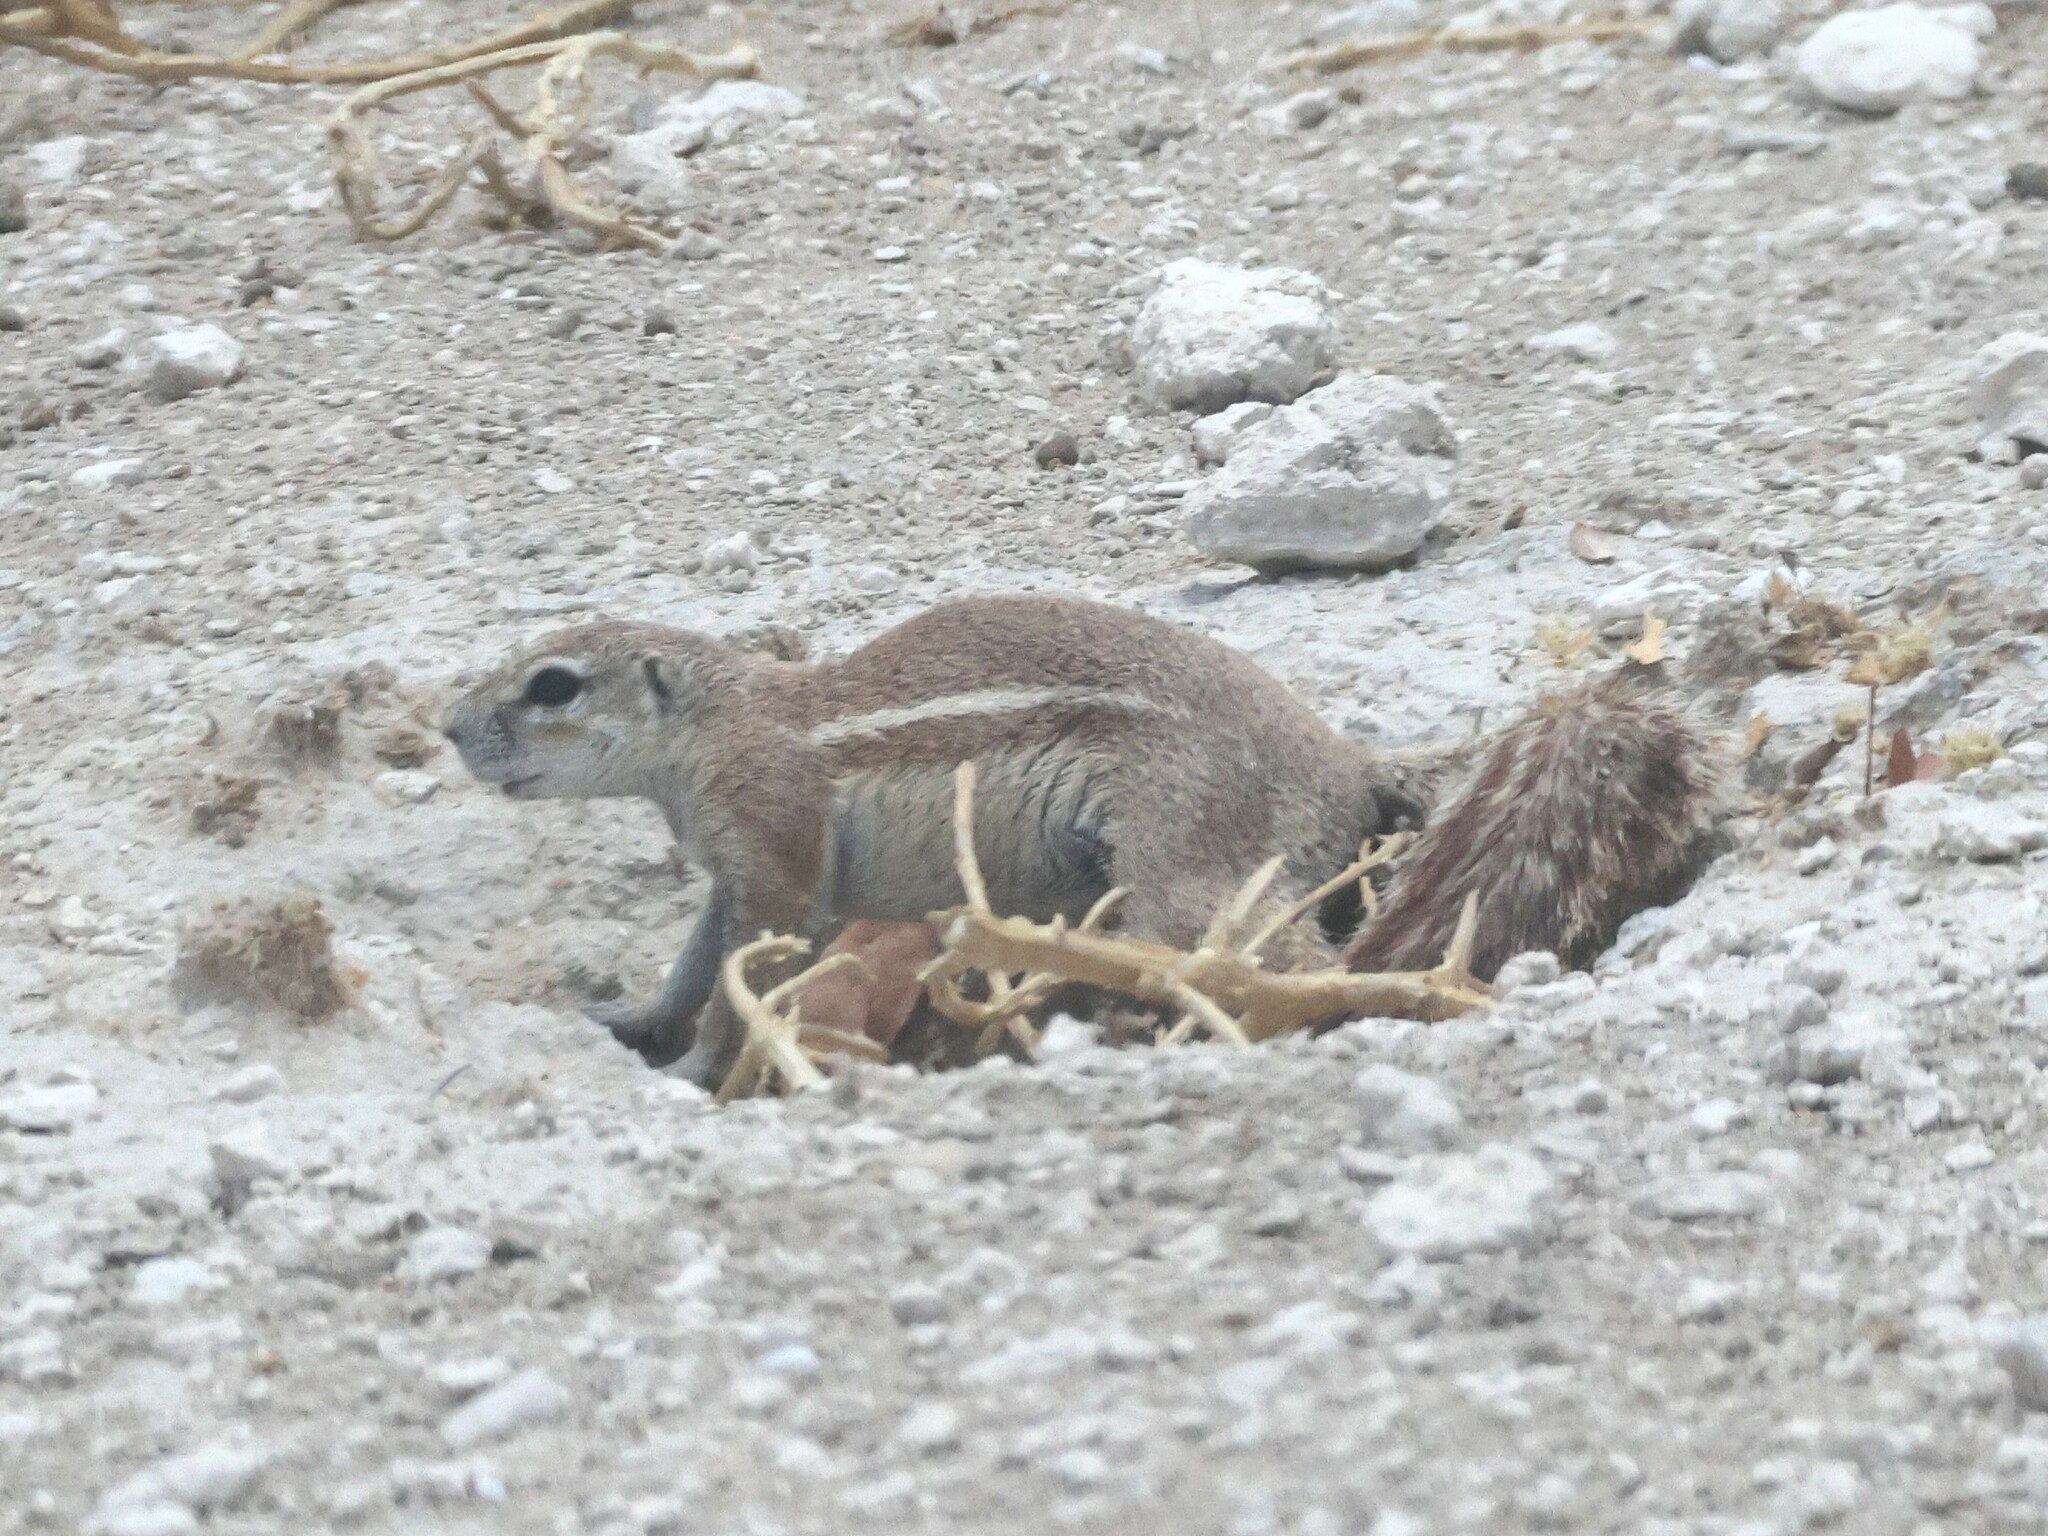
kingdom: Animalia
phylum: Chordata
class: Mammalia
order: Rodentia
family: Sciuridae
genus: Xerus
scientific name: Xerus inauris
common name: South african ground squirrel
